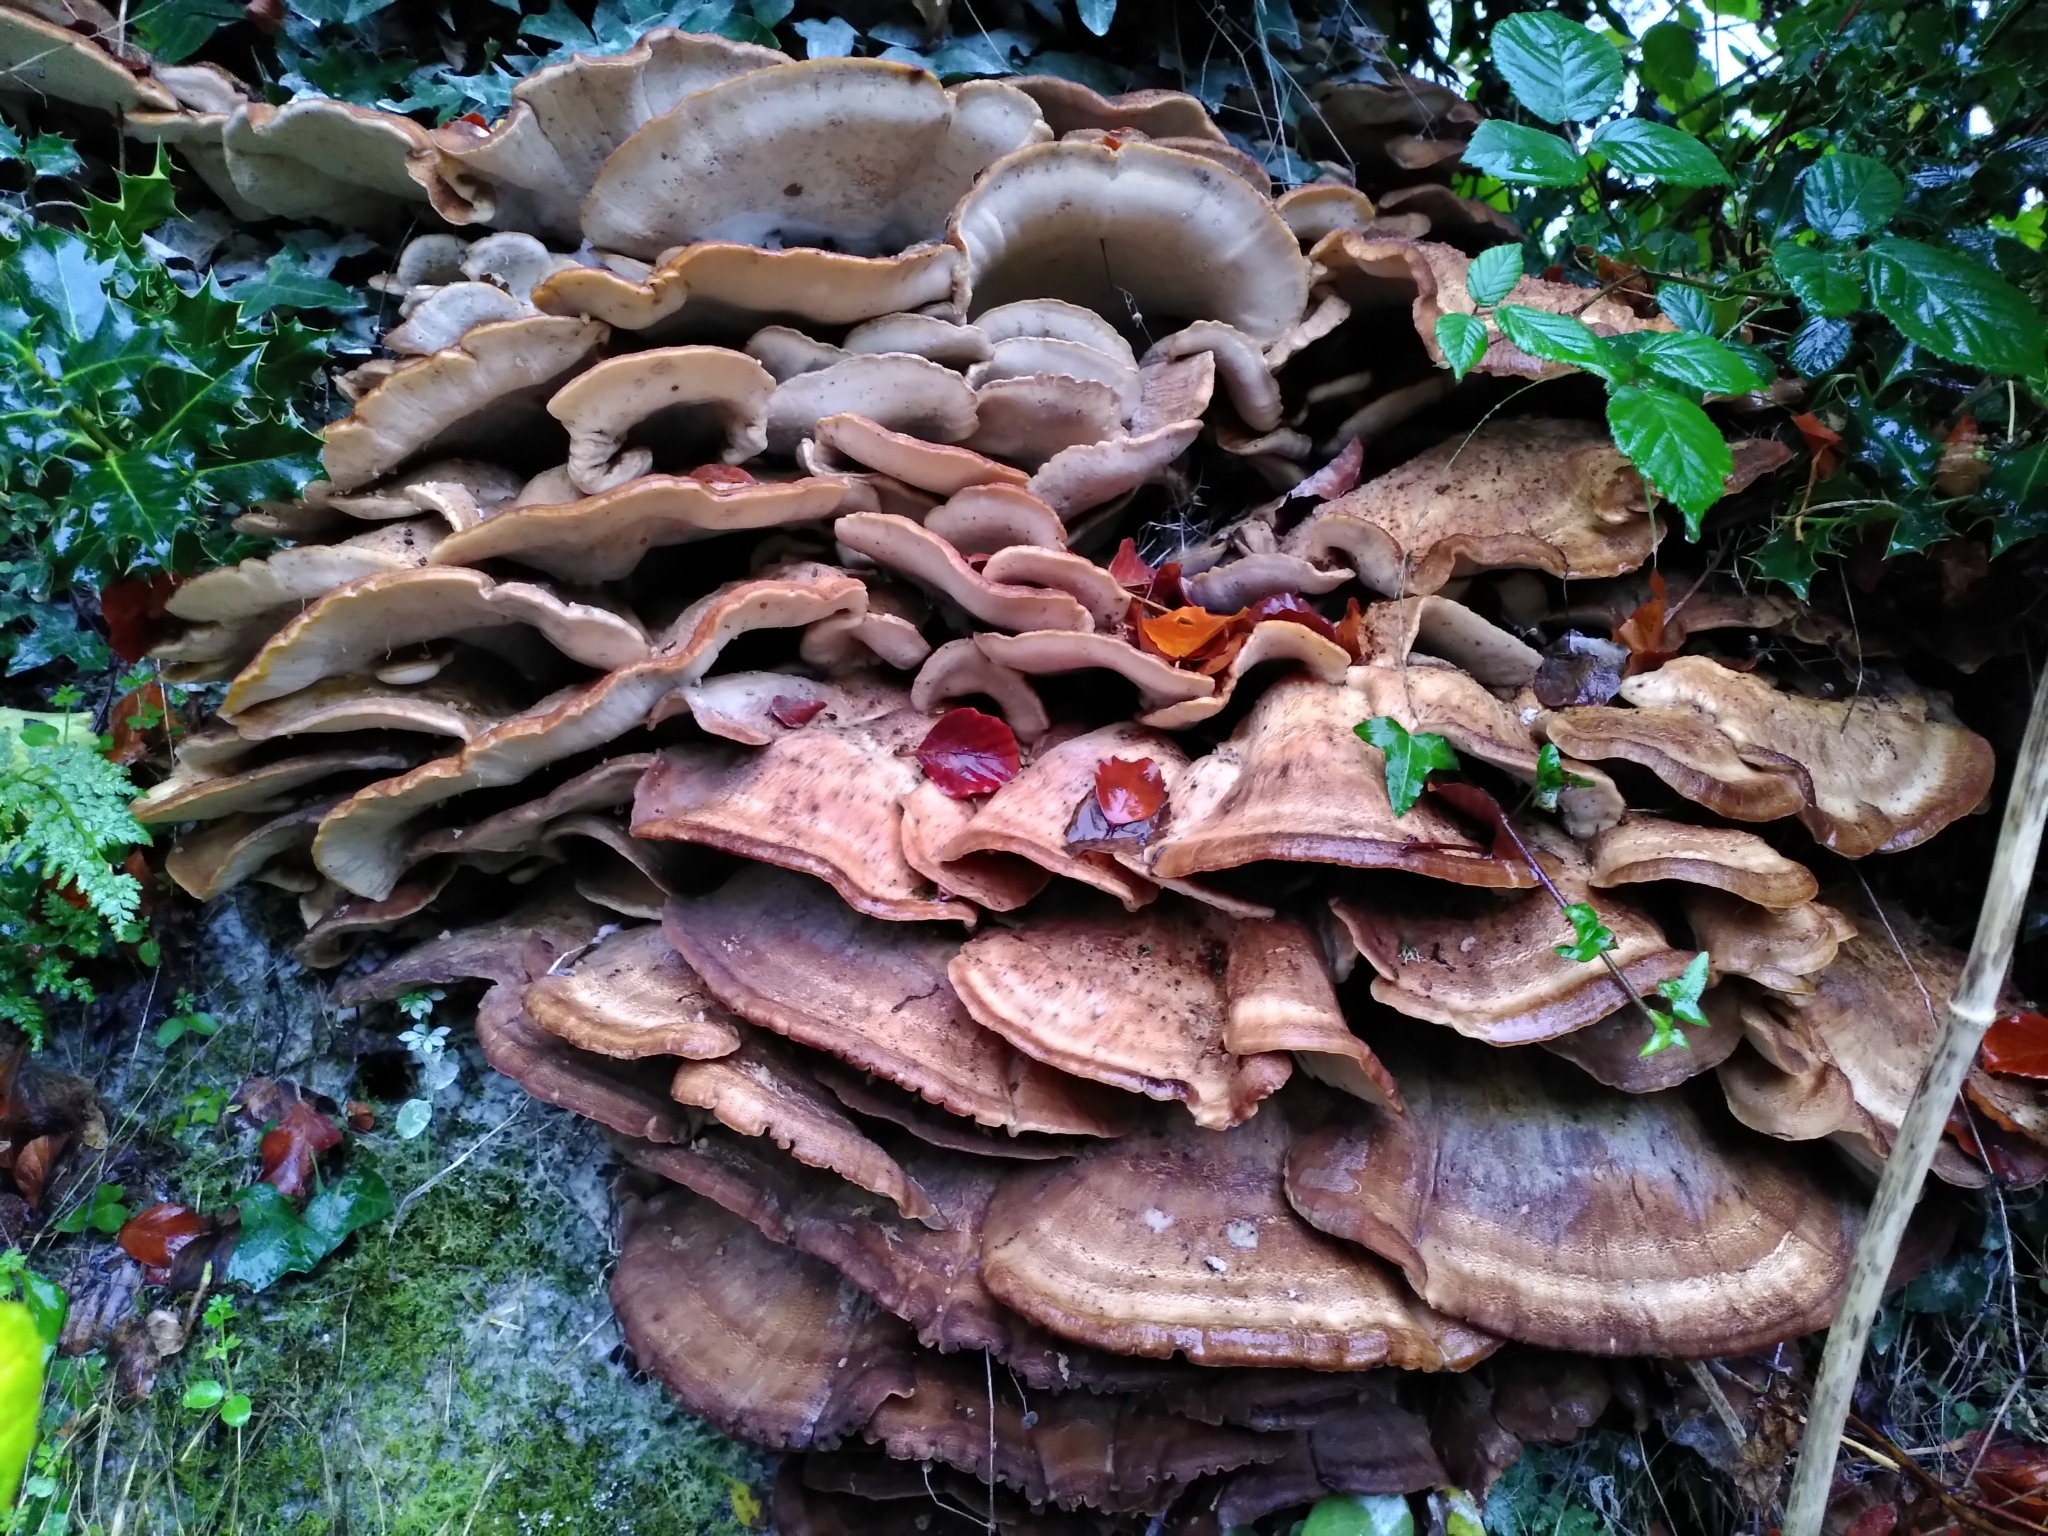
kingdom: Fungi
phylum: Basidiomycota
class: Agaricomycetes
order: Polyporales
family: Meripilaceae
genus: Meripilus
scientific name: Meripilus giganteus
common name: Giant polypore
